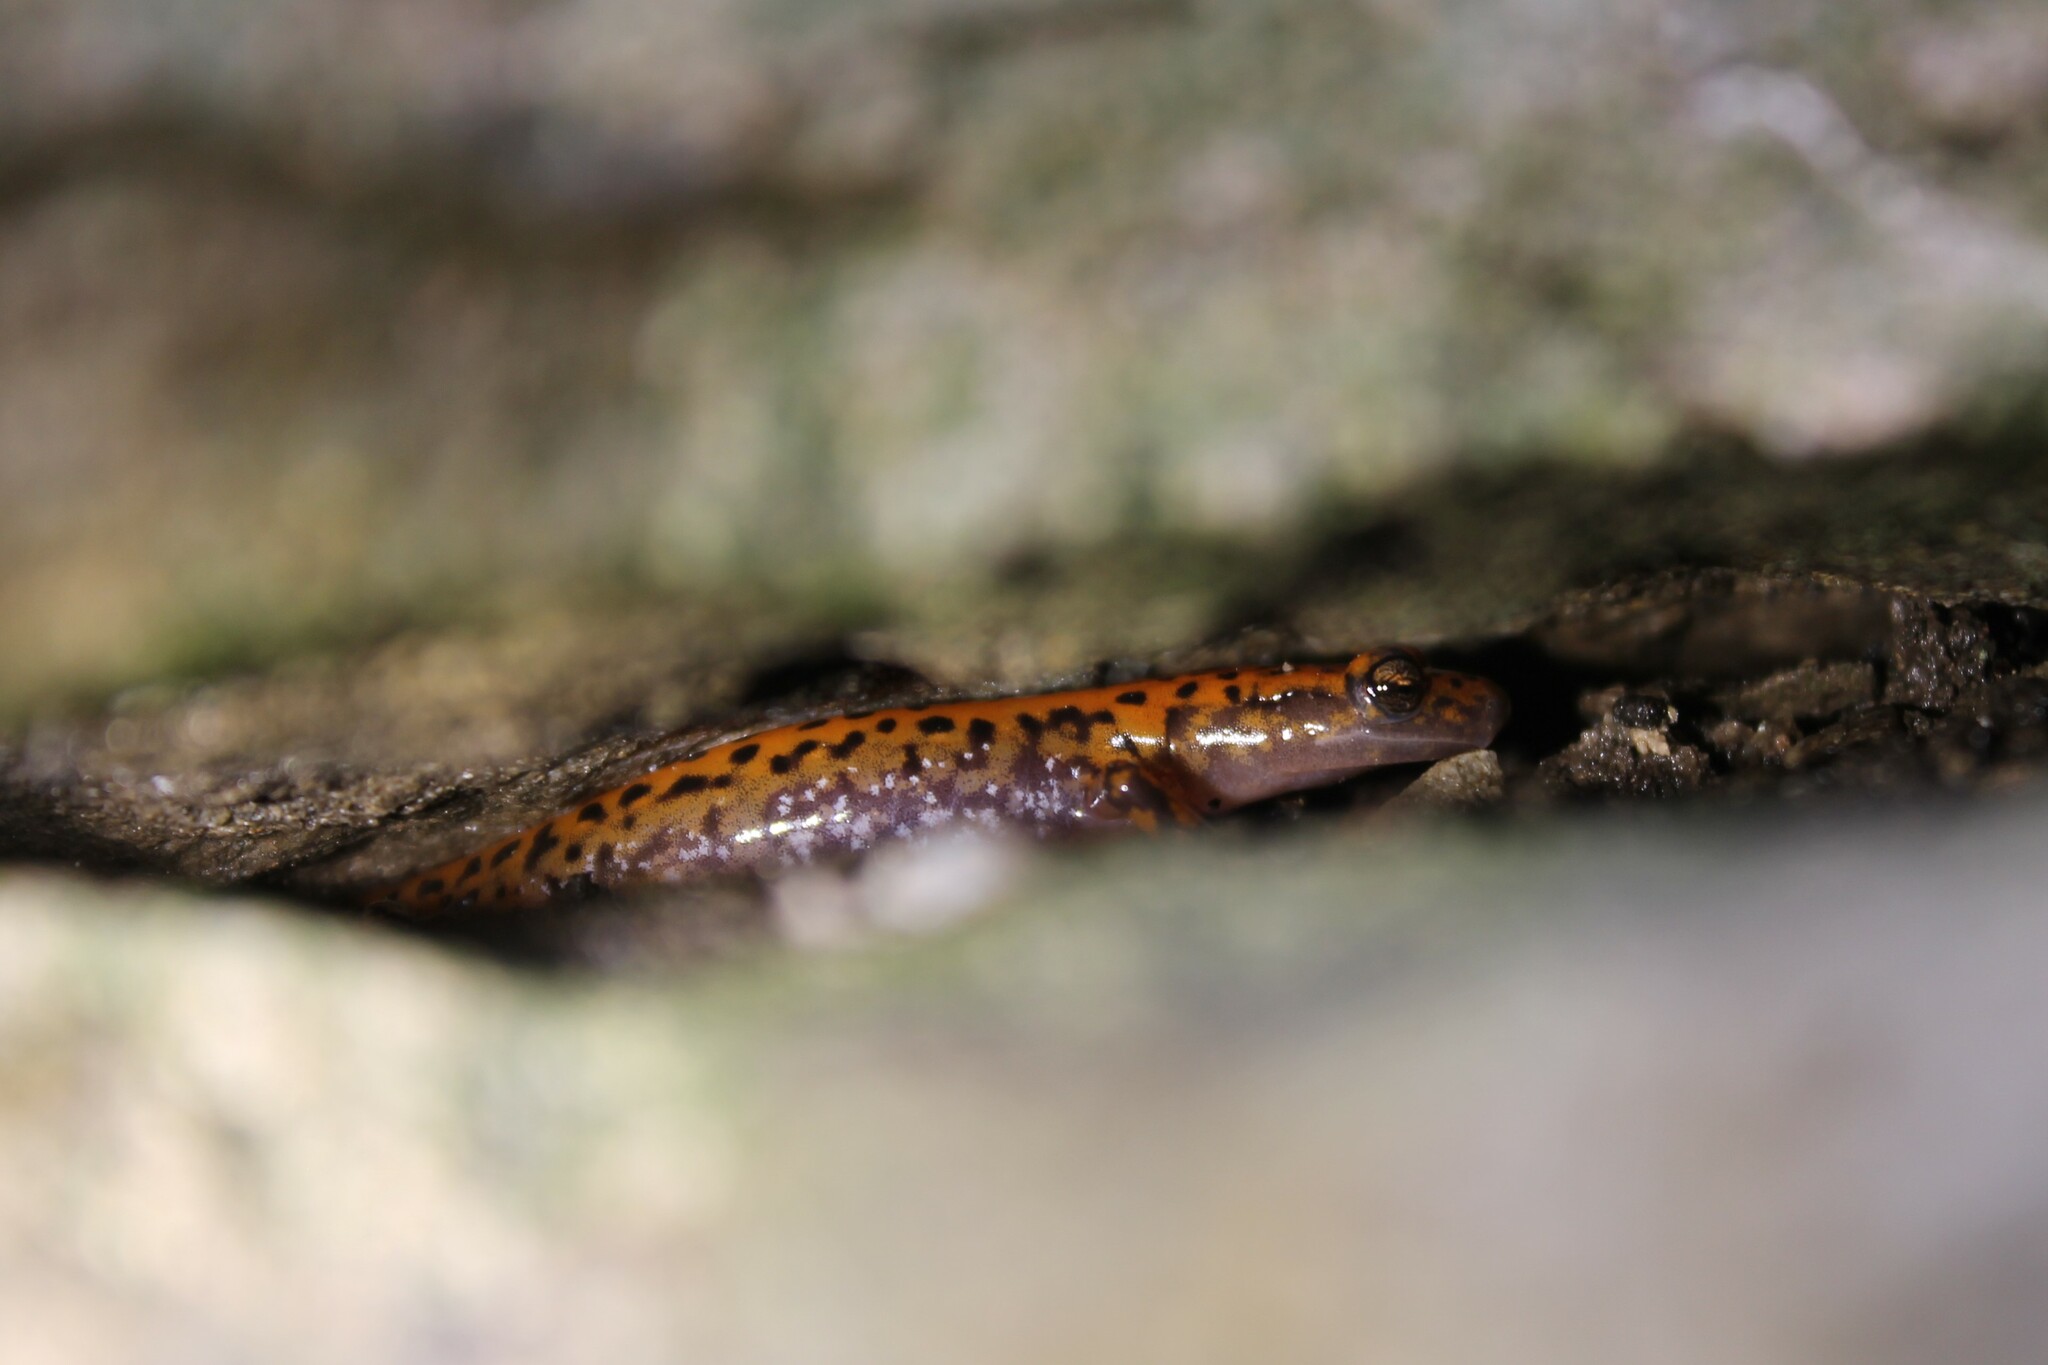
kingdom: Animalia
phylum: Chordata
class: Amphibia
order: Caudata
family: Plethodontidae
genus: Eurycea
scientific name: Eurycea lucifuga
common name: Cave salamander
